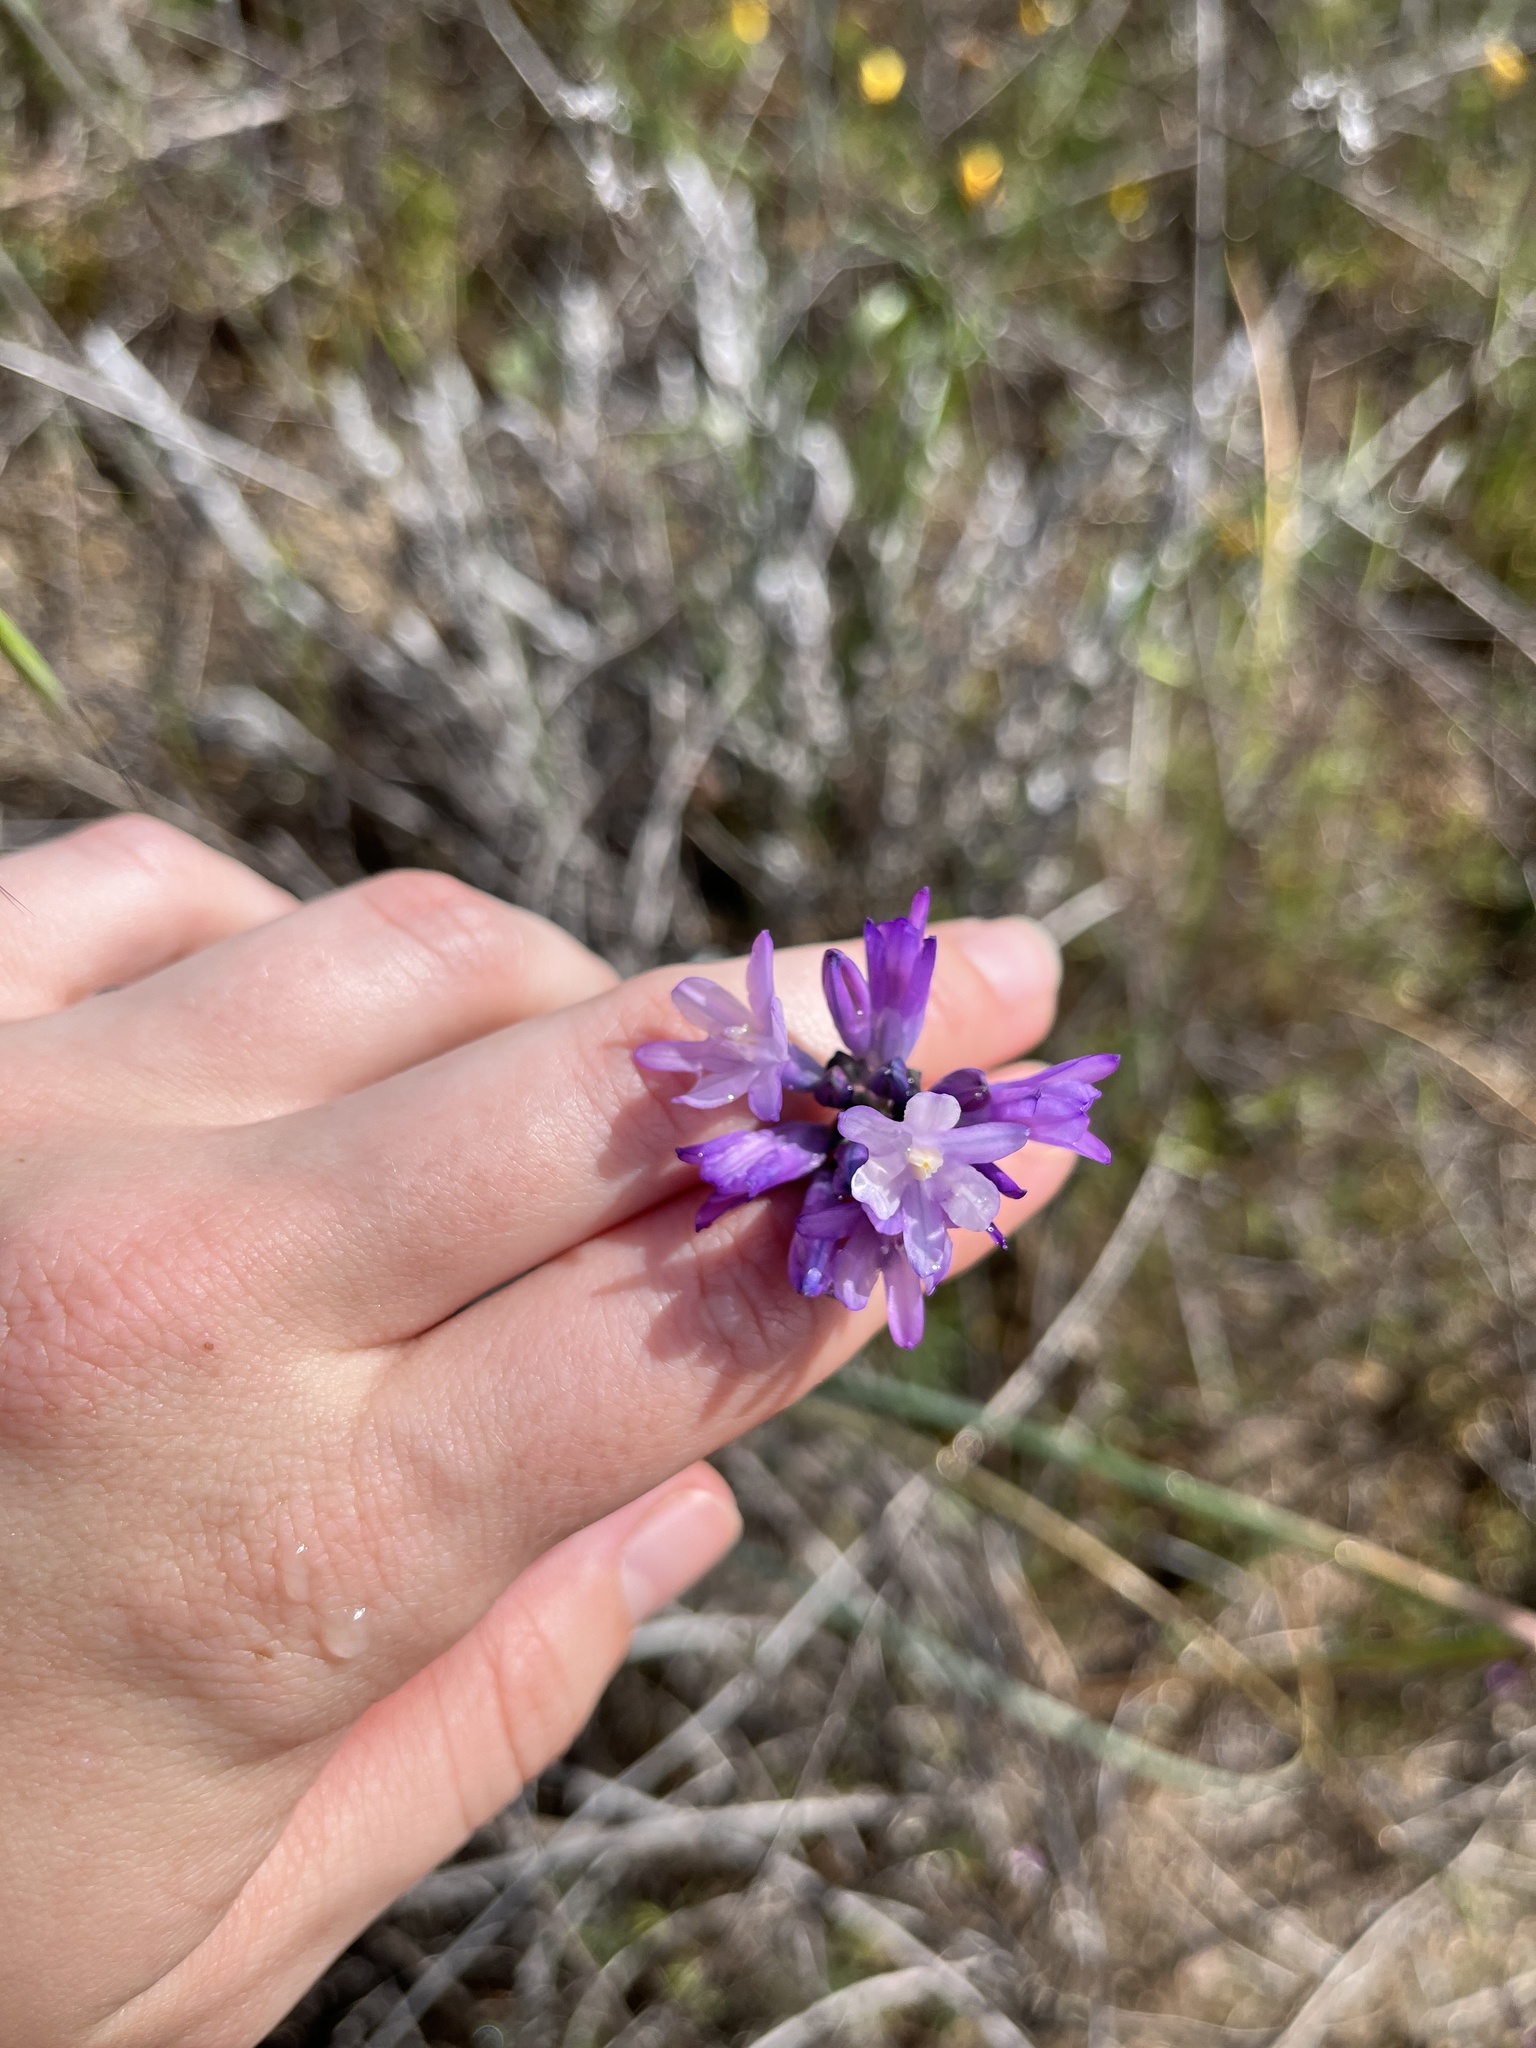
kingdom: Plantae
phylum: Tracheophyta
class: Liliopsida
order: Asparagales
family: Asparagaceae
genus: Dipterostemon
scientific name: Dipterostemon capitatus
